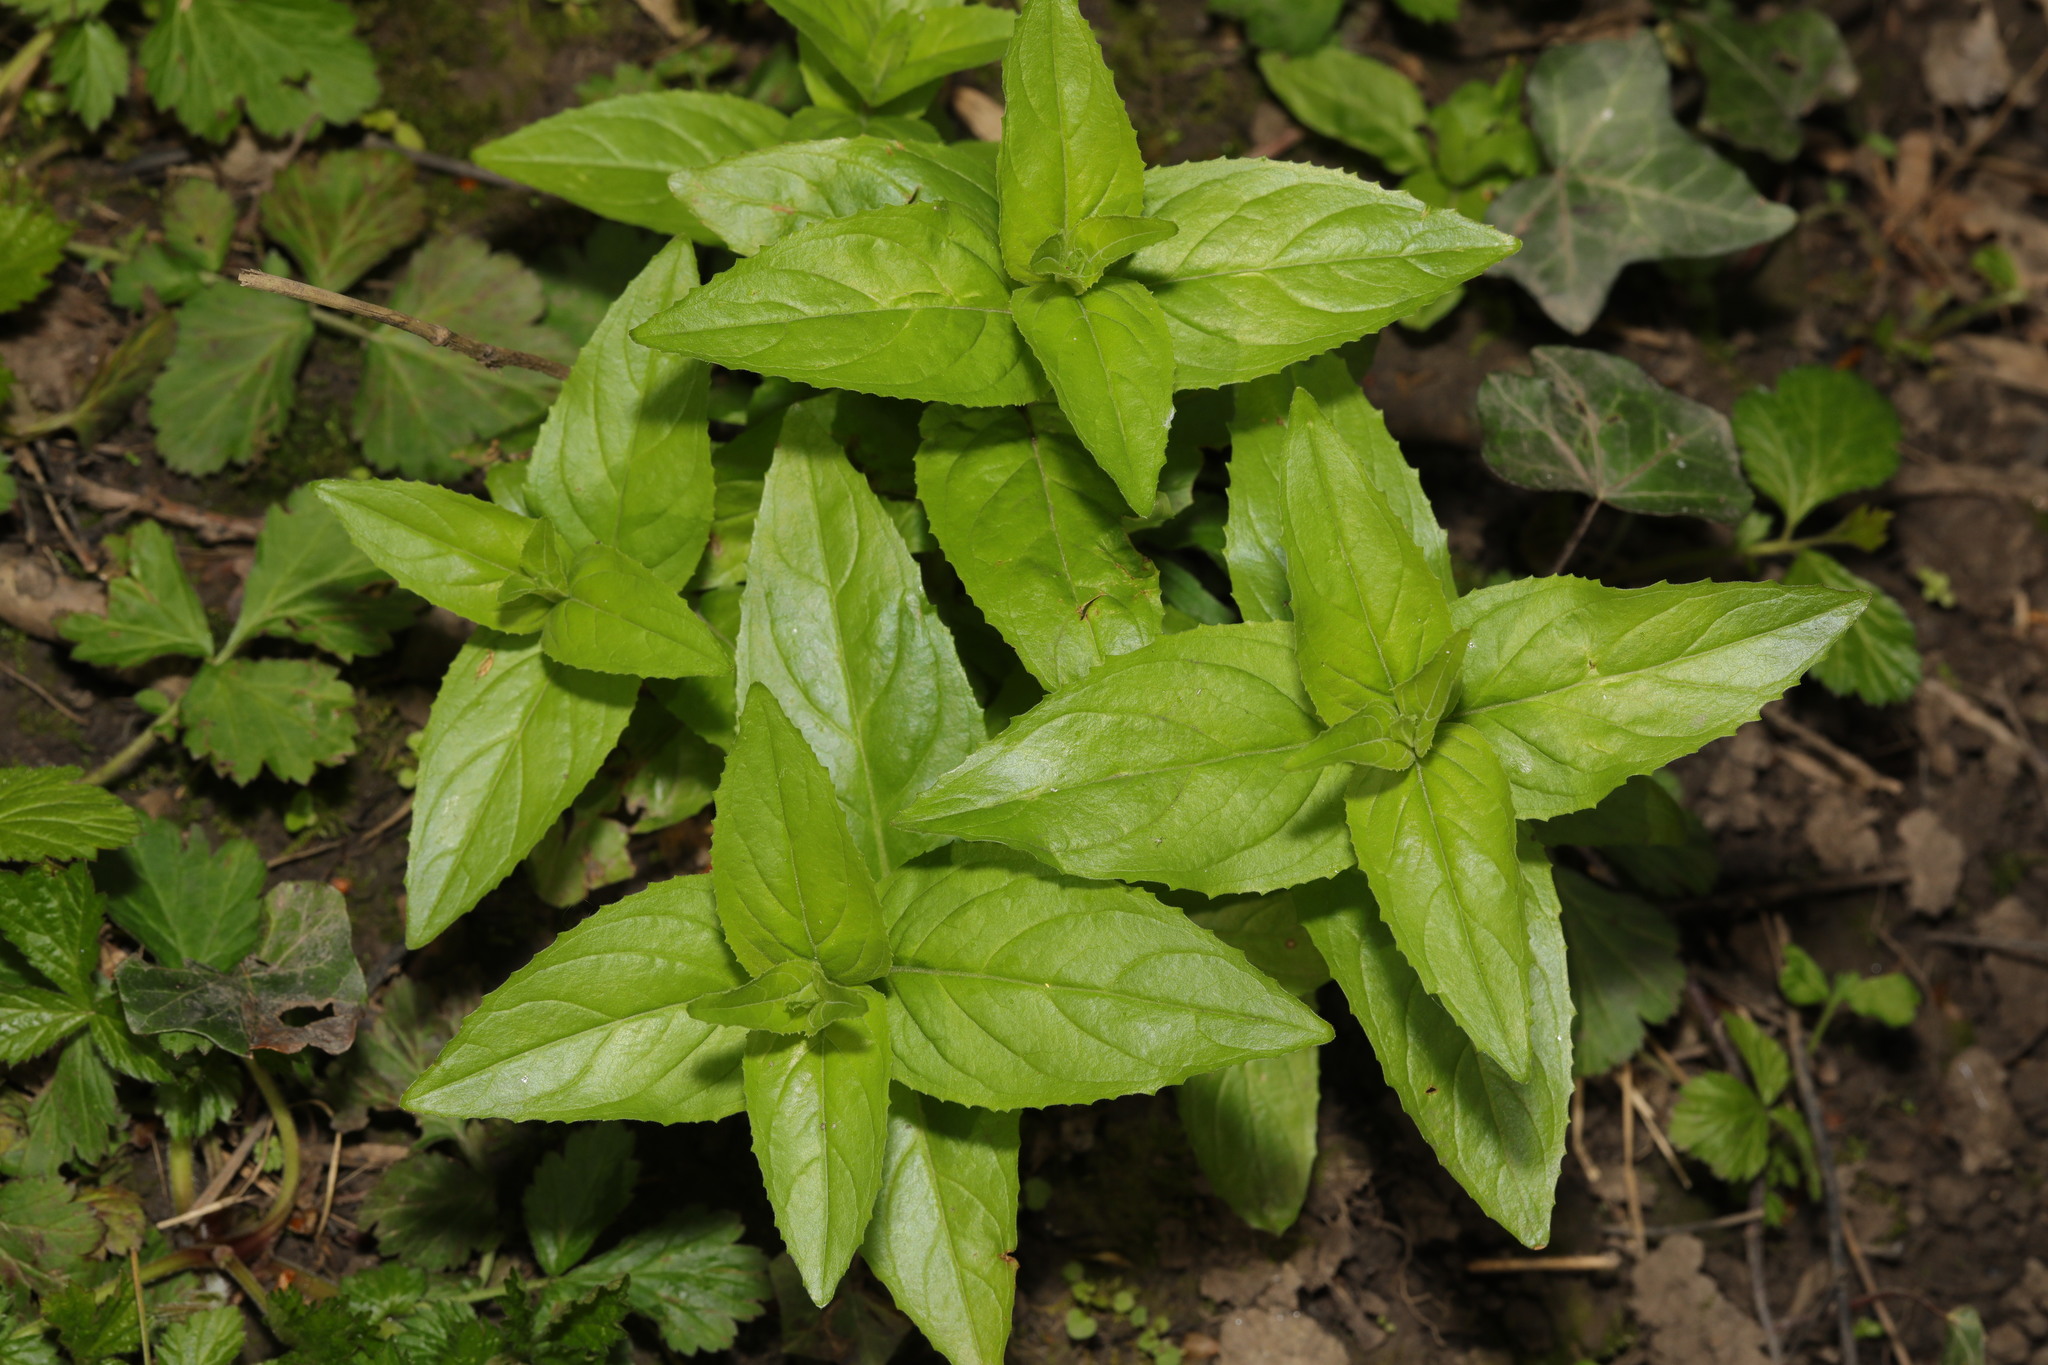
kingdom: Plantae
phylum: Tracheophyta
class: Magnoliopsida
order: Myrtales
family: Onagraceae
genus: Epilobium
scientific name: Epilobium montanum
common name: Broad-leaved willowherb
